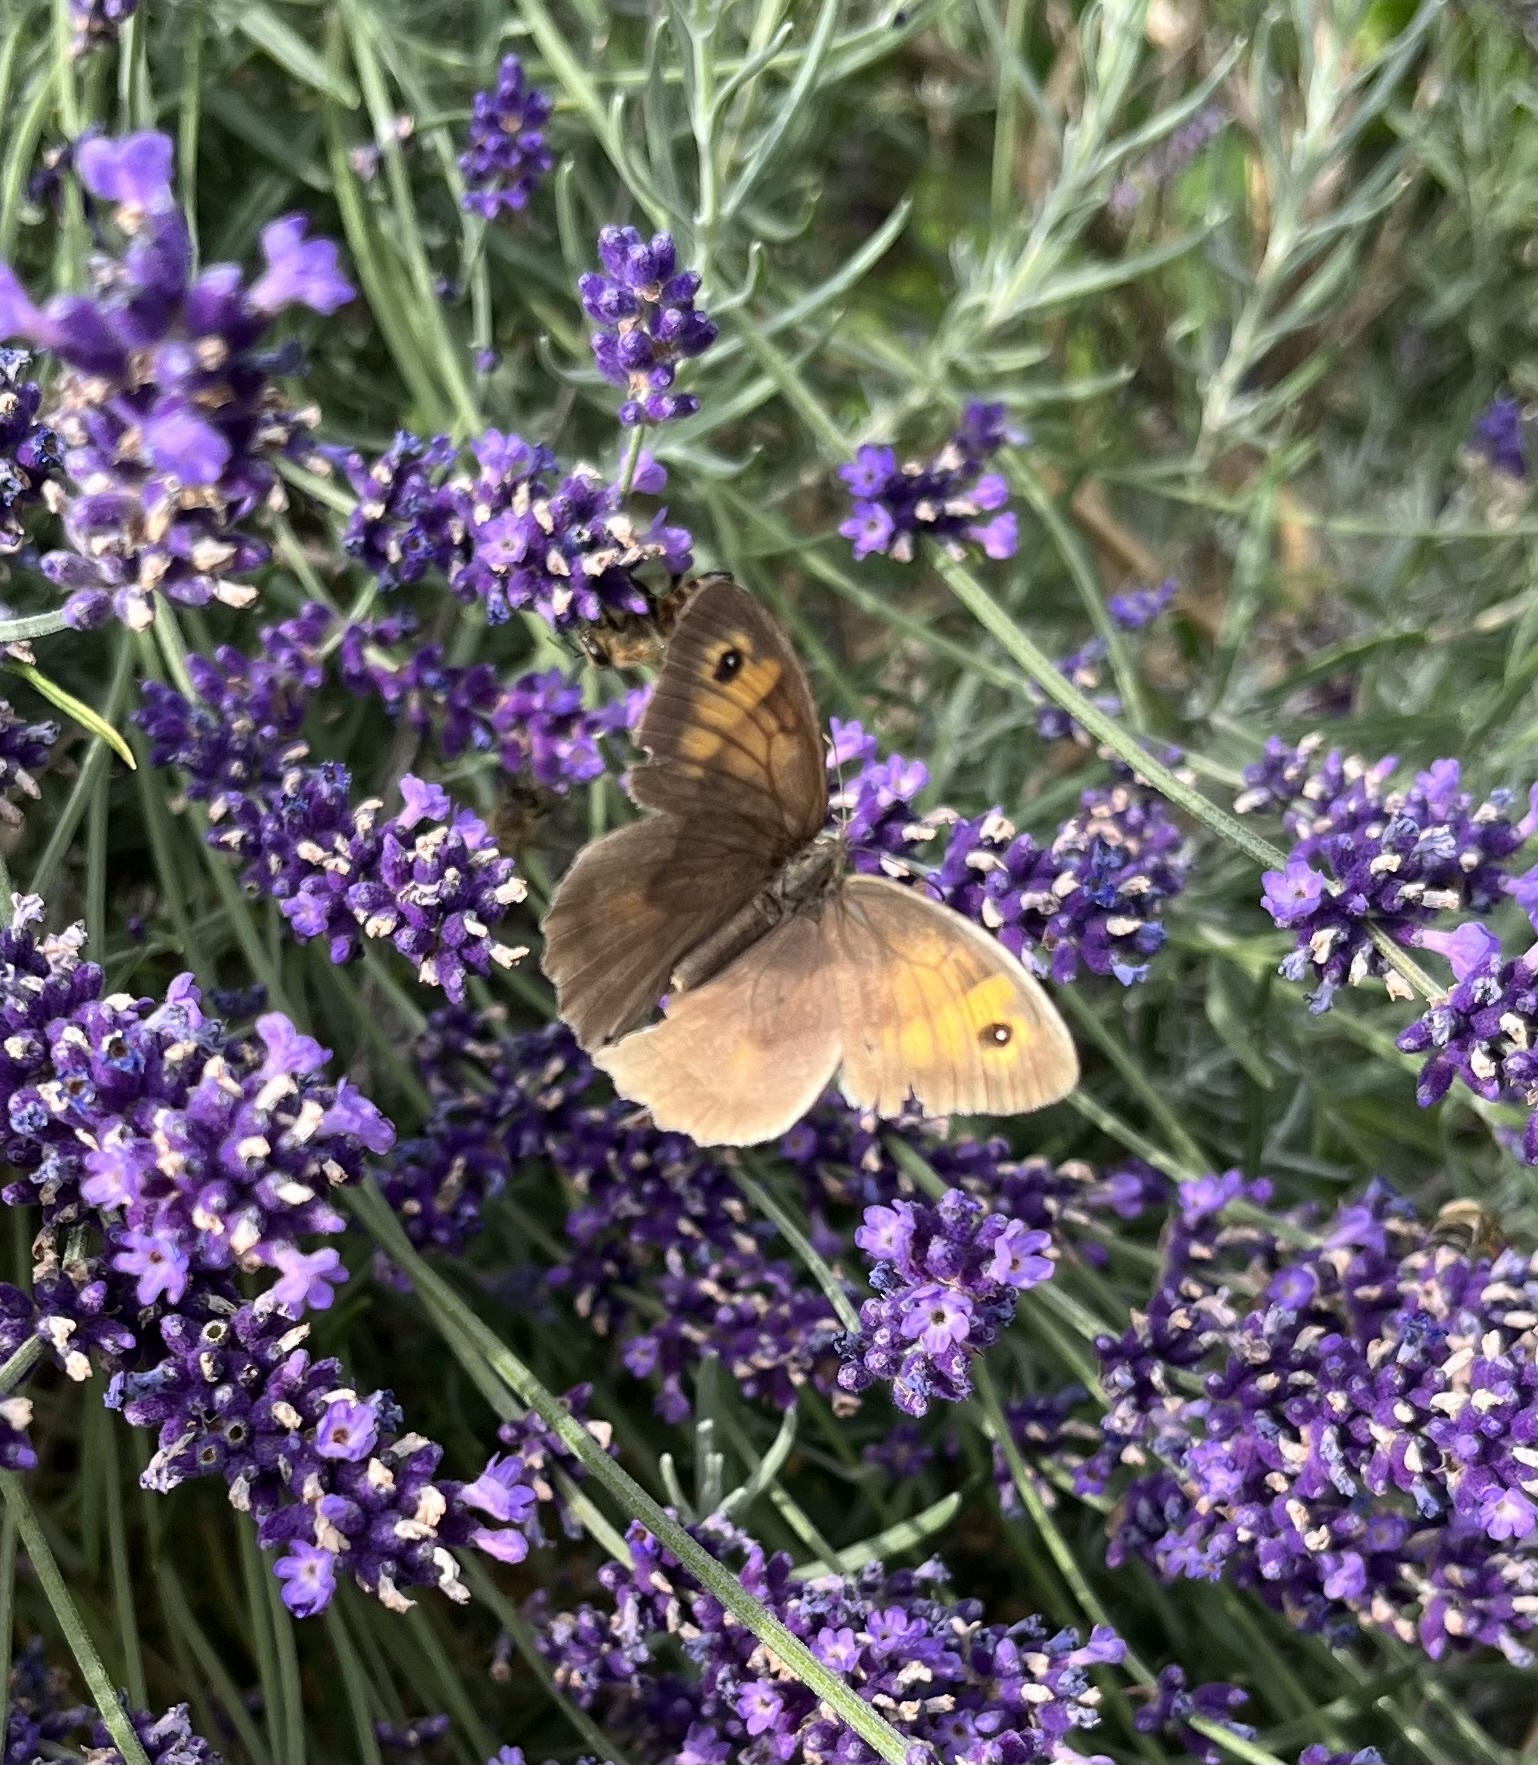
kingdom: Animalia
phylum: Arthropoda
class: Insecta
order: Lepidoptera
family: Nymphalidae
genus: Maniola
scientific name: Maniola jurtina
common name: Meadow brown
